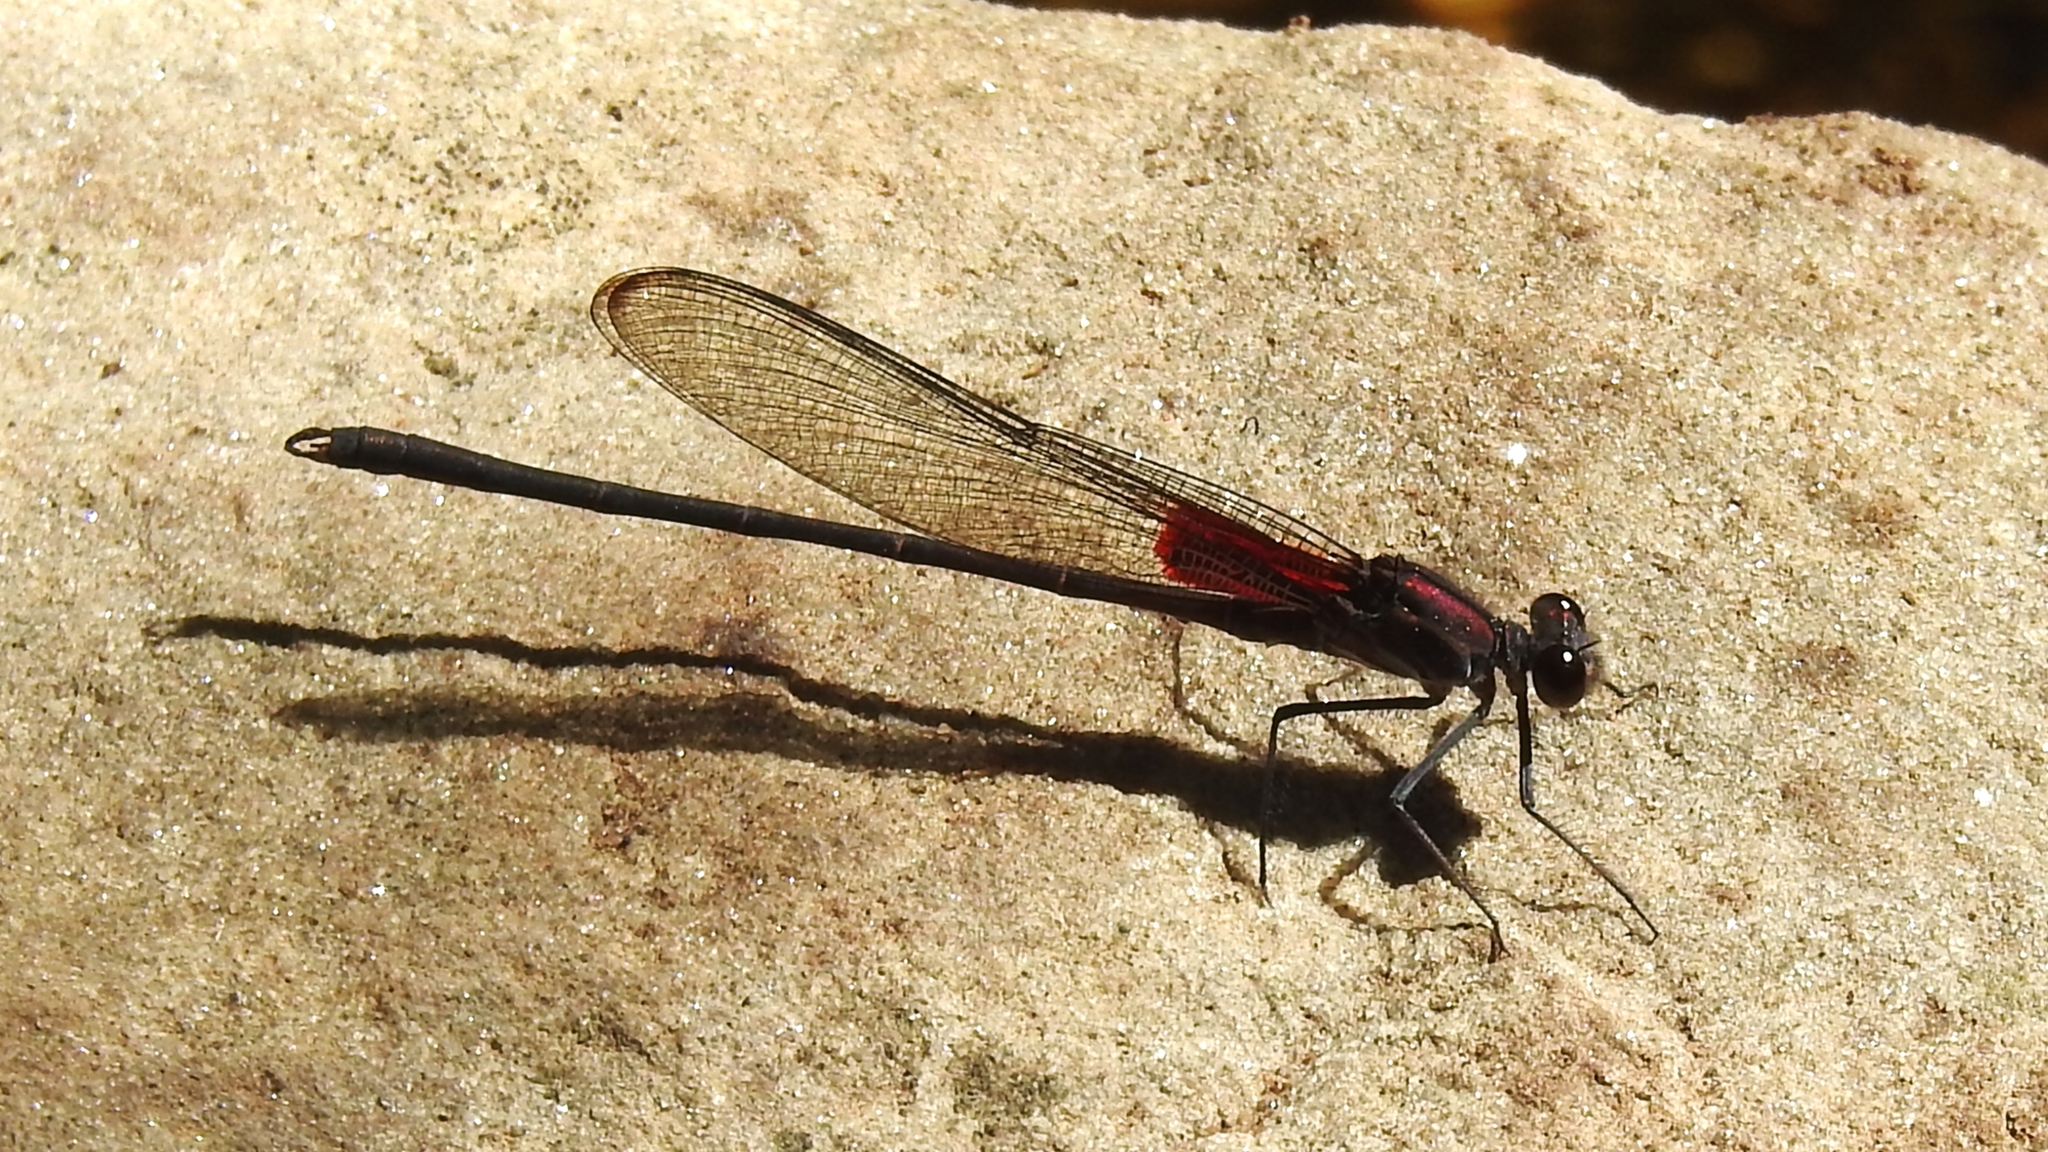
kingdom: Animalia
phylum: Arthropoda
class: Insecta
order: Odonata
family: Calopterygidae
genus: Hetaerina
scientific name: Hetaerina vulnerata
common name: Canyon rubyspot
